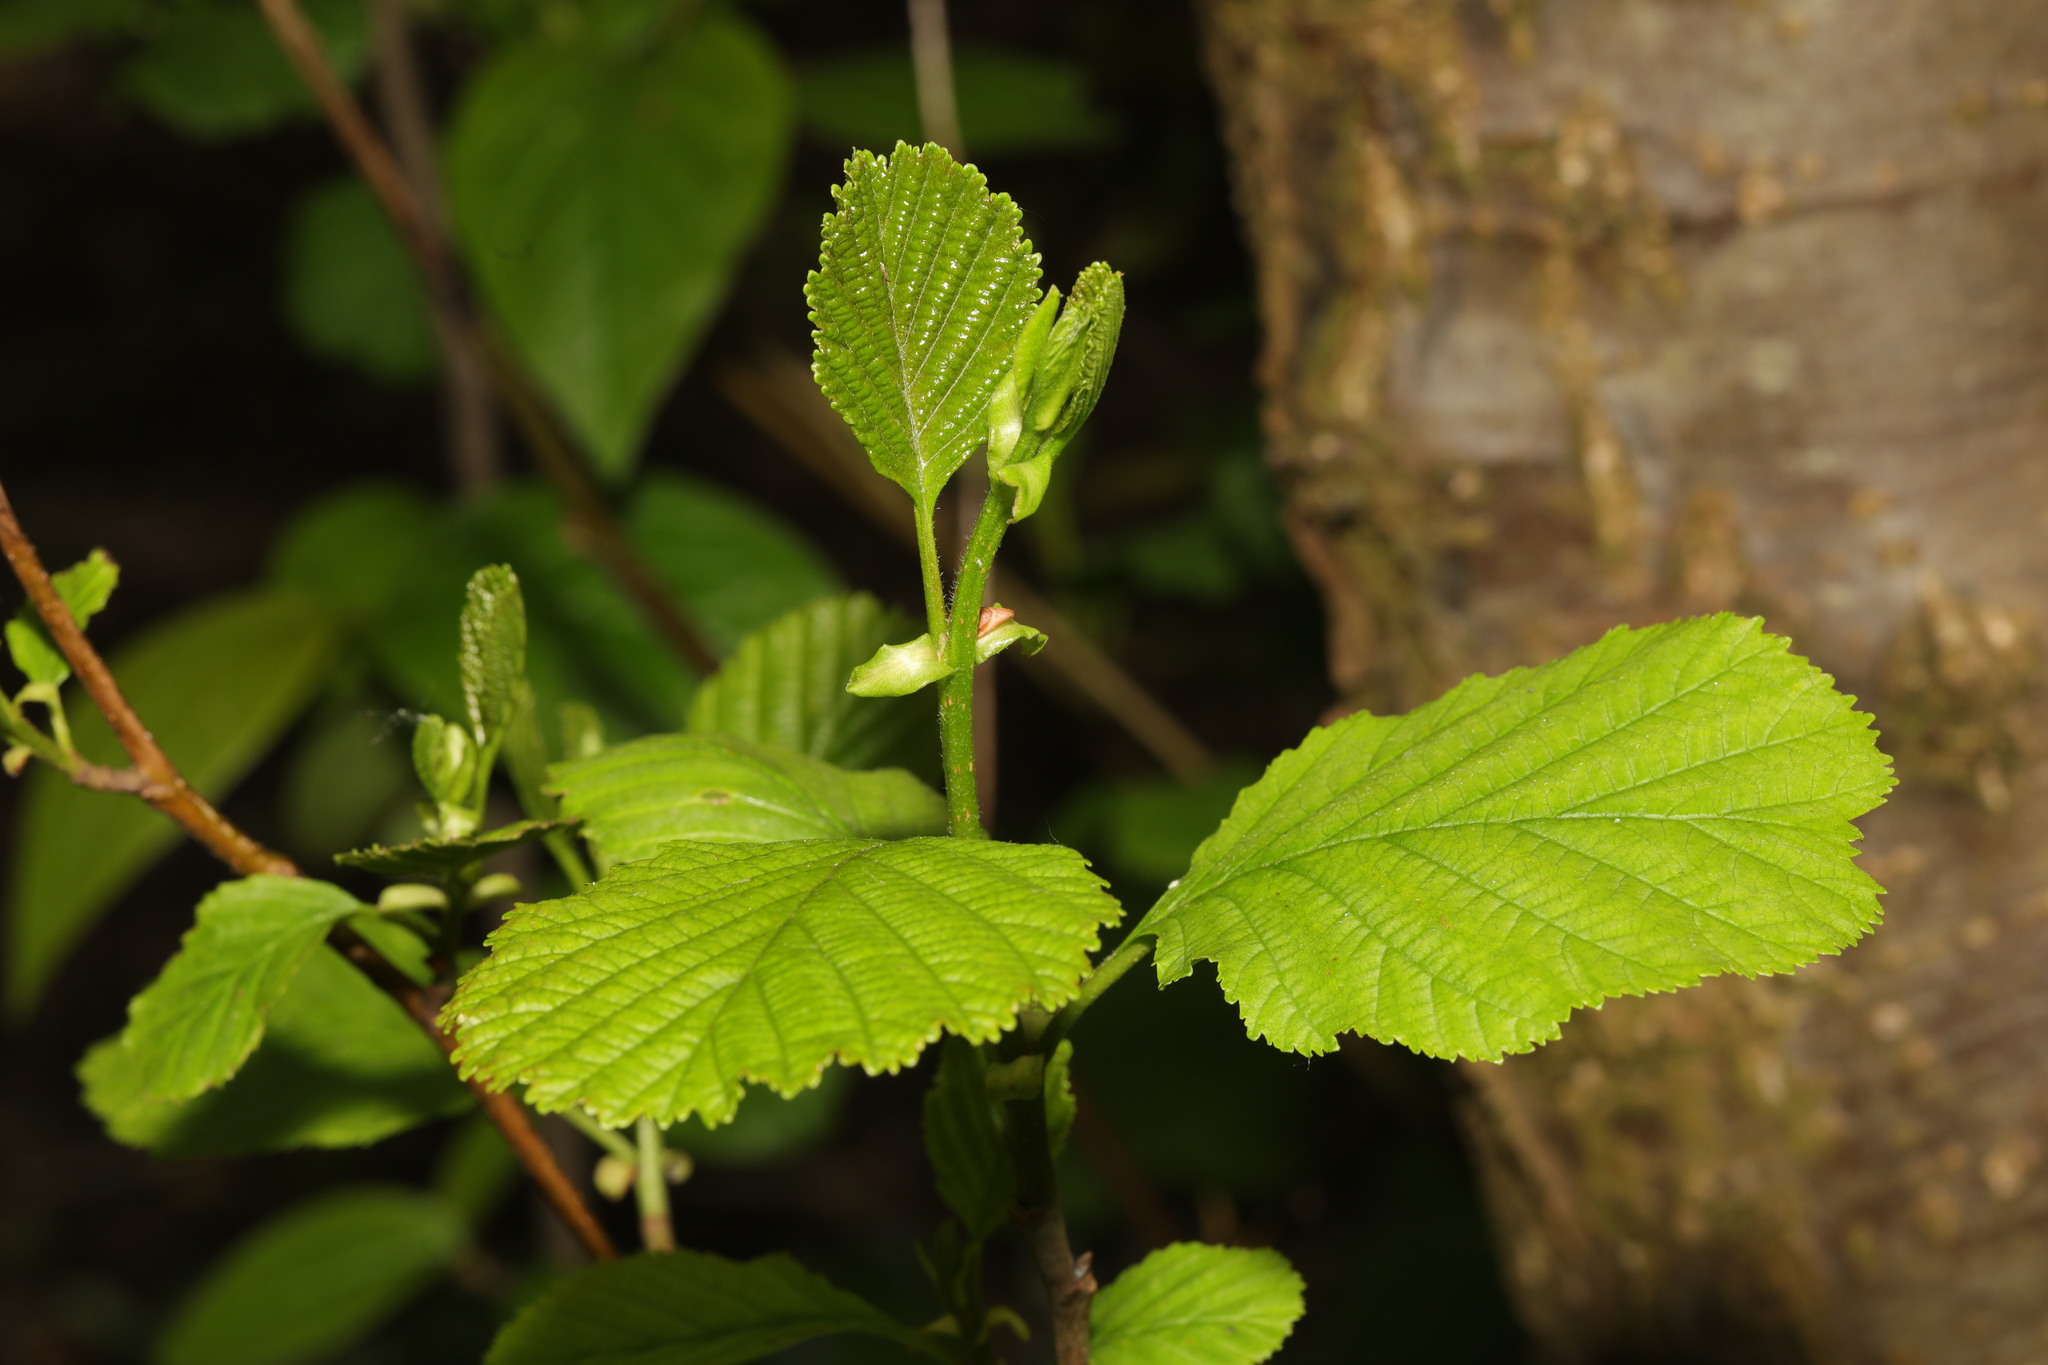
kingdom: Plantae
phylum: Tracheophyta
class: Magnoliopsida
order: Fagales
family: Betulaceae
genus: Alnus
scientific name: Alnus glutinosa
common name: Black alder
